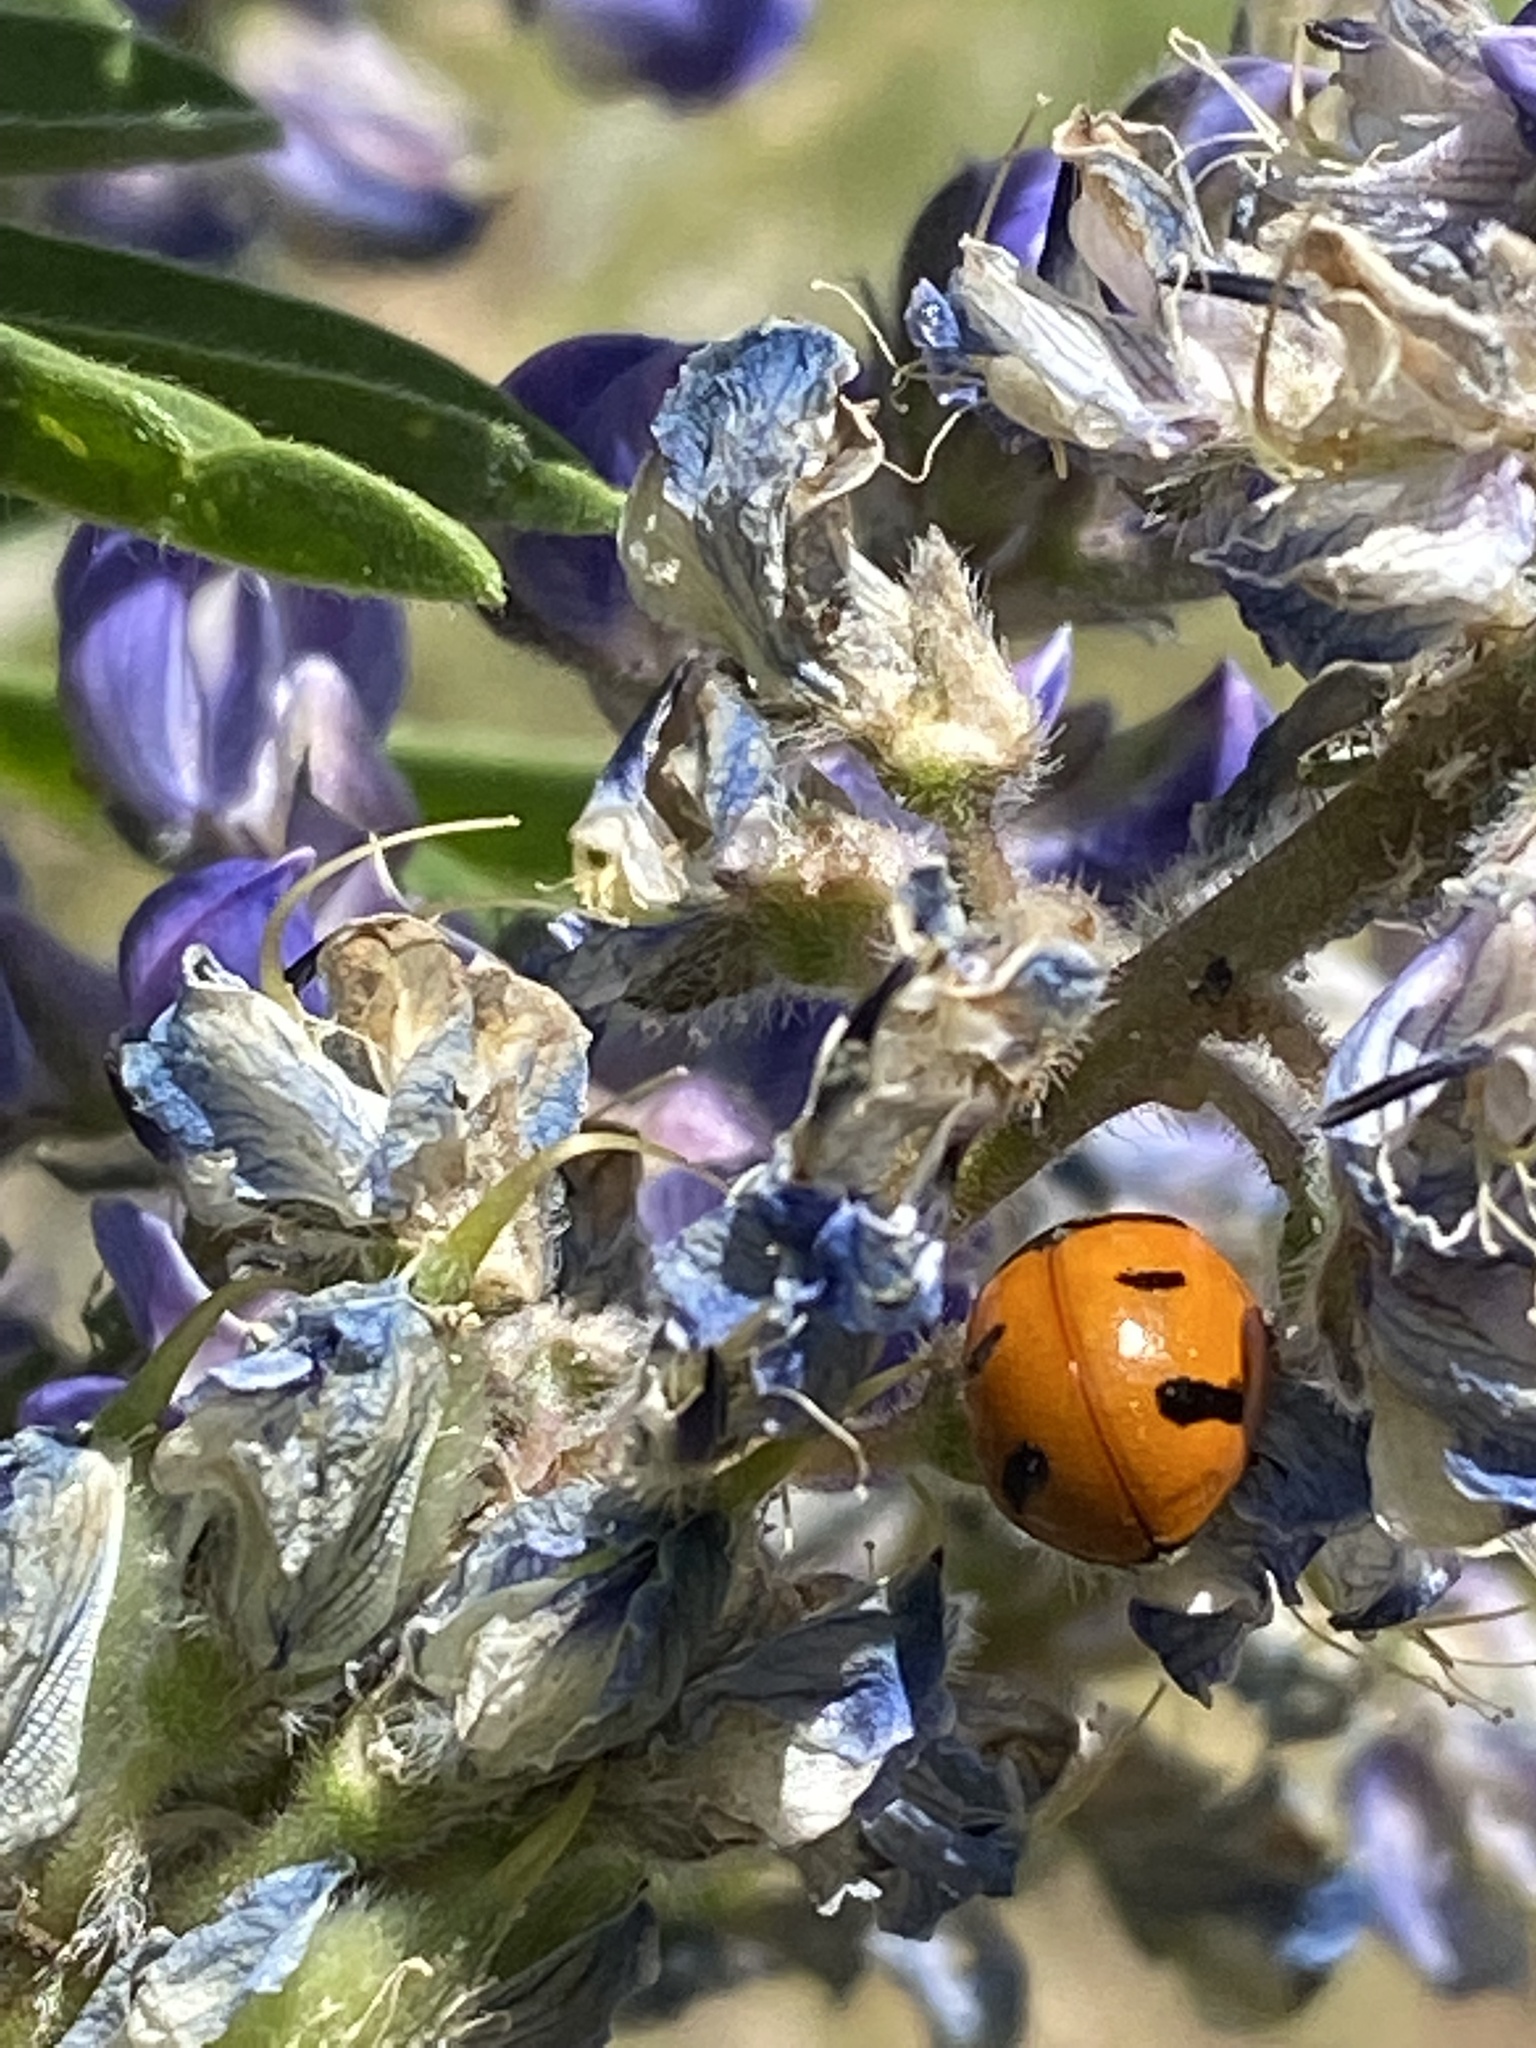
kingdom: Animalia
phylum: Arthropoda
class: Insecta
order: Coleoptera
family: Coccinellidae
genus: Coccinella
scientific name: Coccinella transversoguttata
